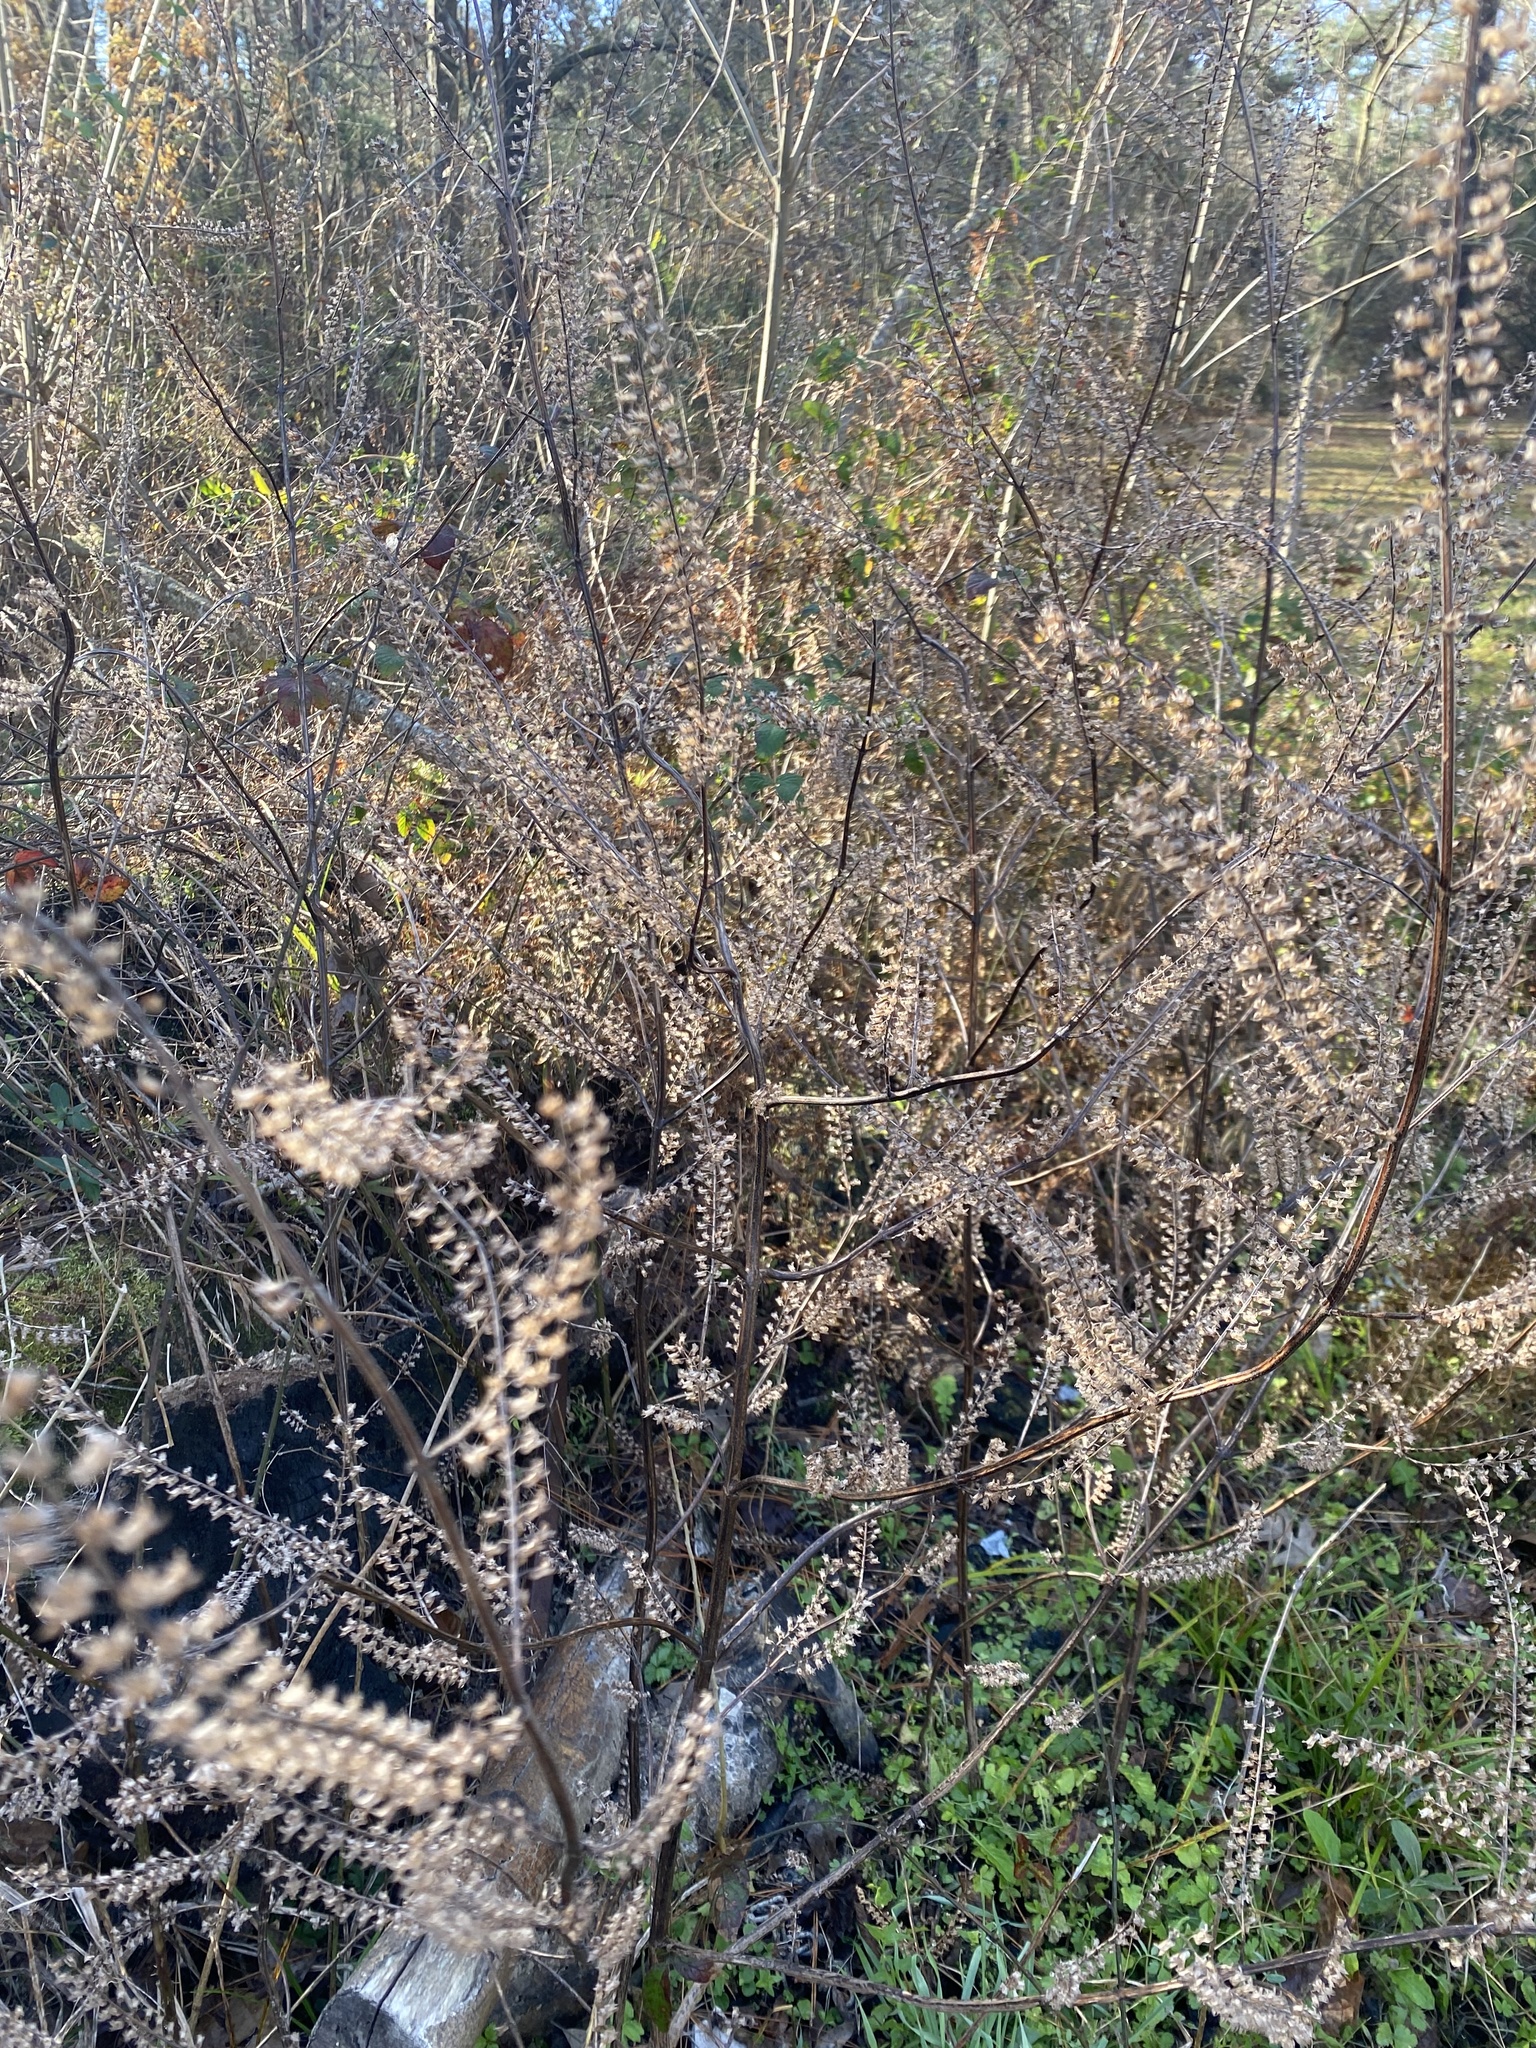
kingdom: Plantae
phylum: Tracheophyta
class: Magnoliopsida
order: Lamiales
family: Lamiaceae
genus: Perilla
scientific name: Perilla frutescens
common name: Perilla
